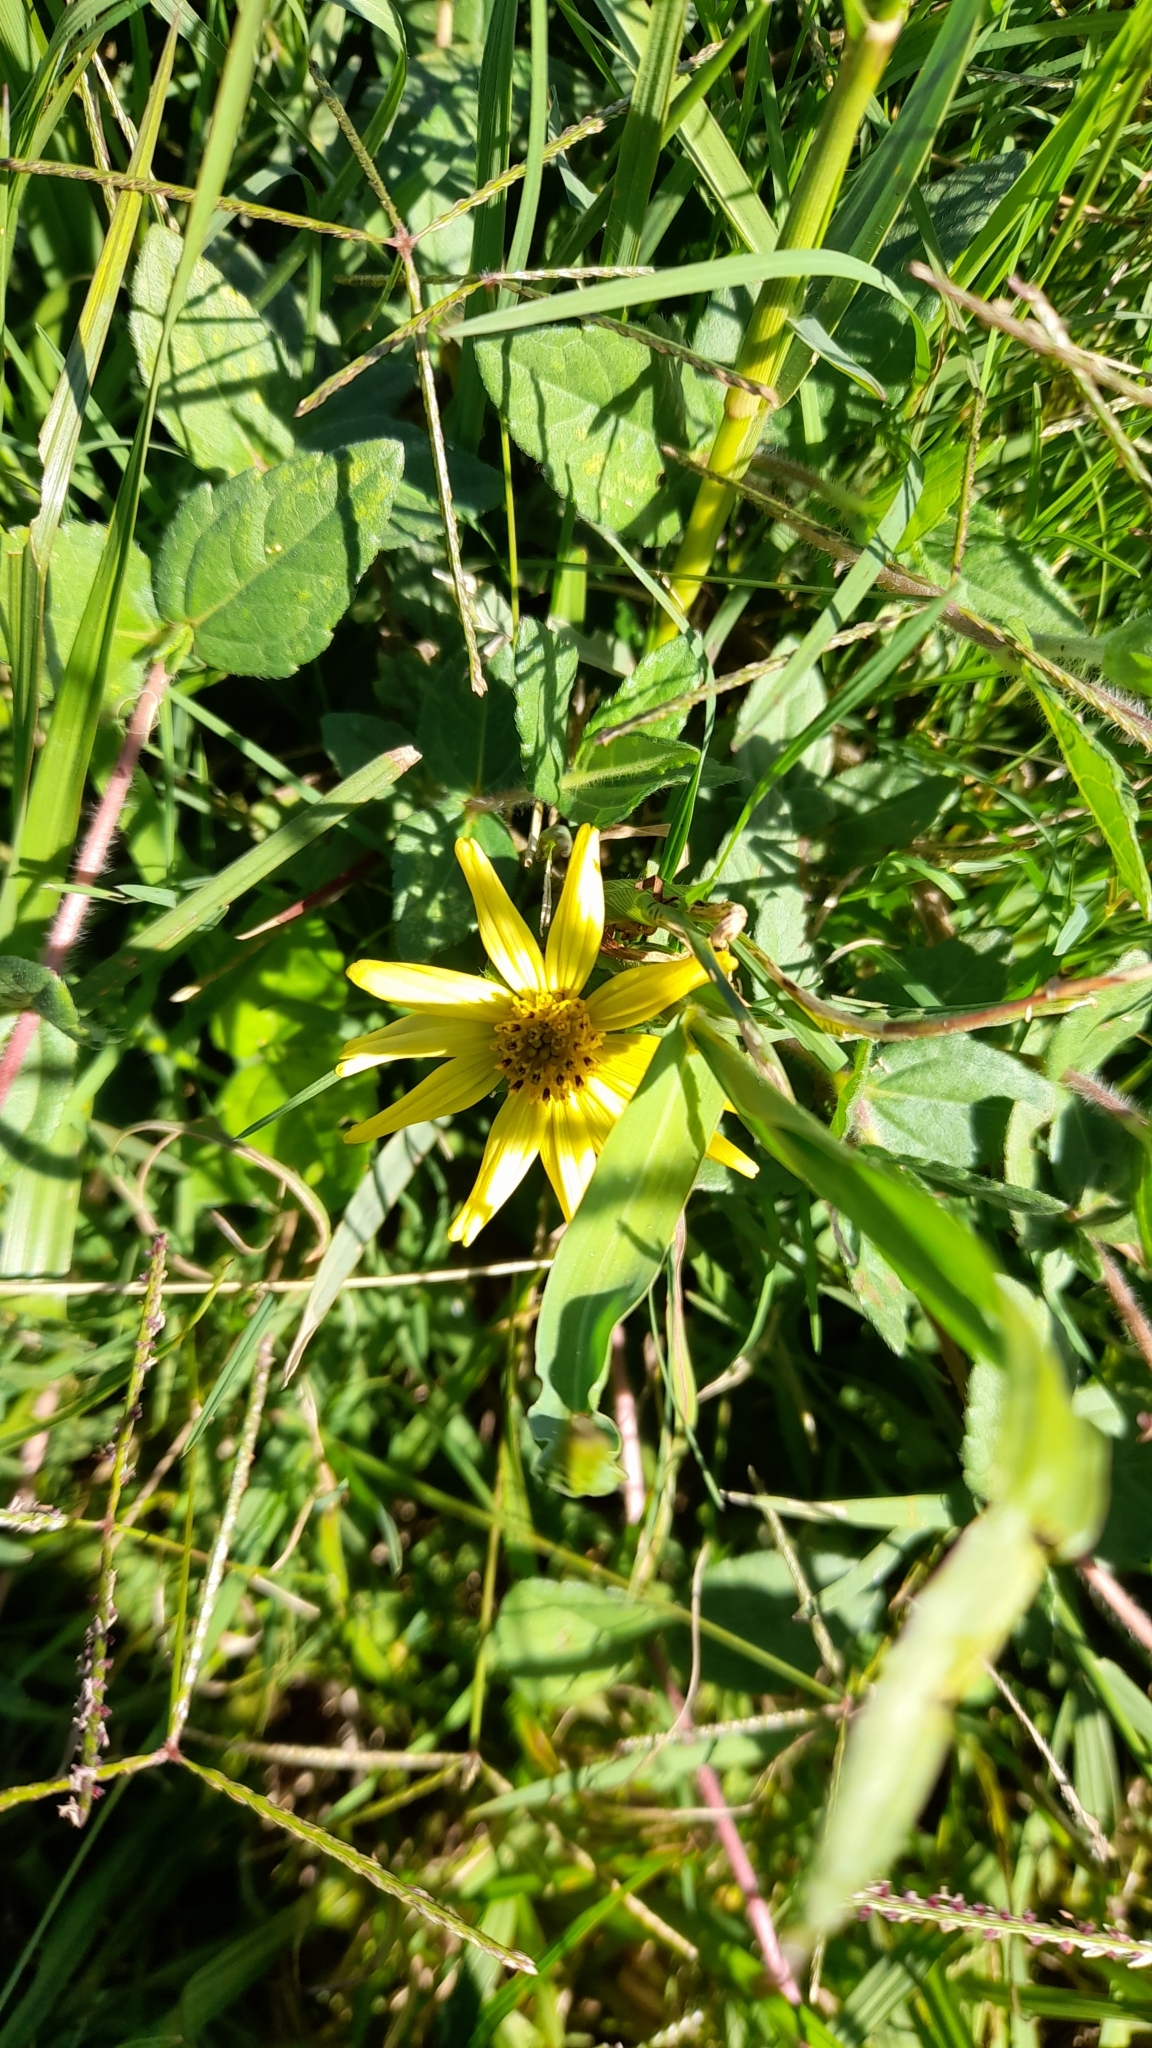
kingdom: Plantae
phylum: Tracheophyta
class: Magnoliopsida
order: Asterales
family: Asteraceae
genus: Sphagneticola
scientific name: Sphagneticola brachycarpa
